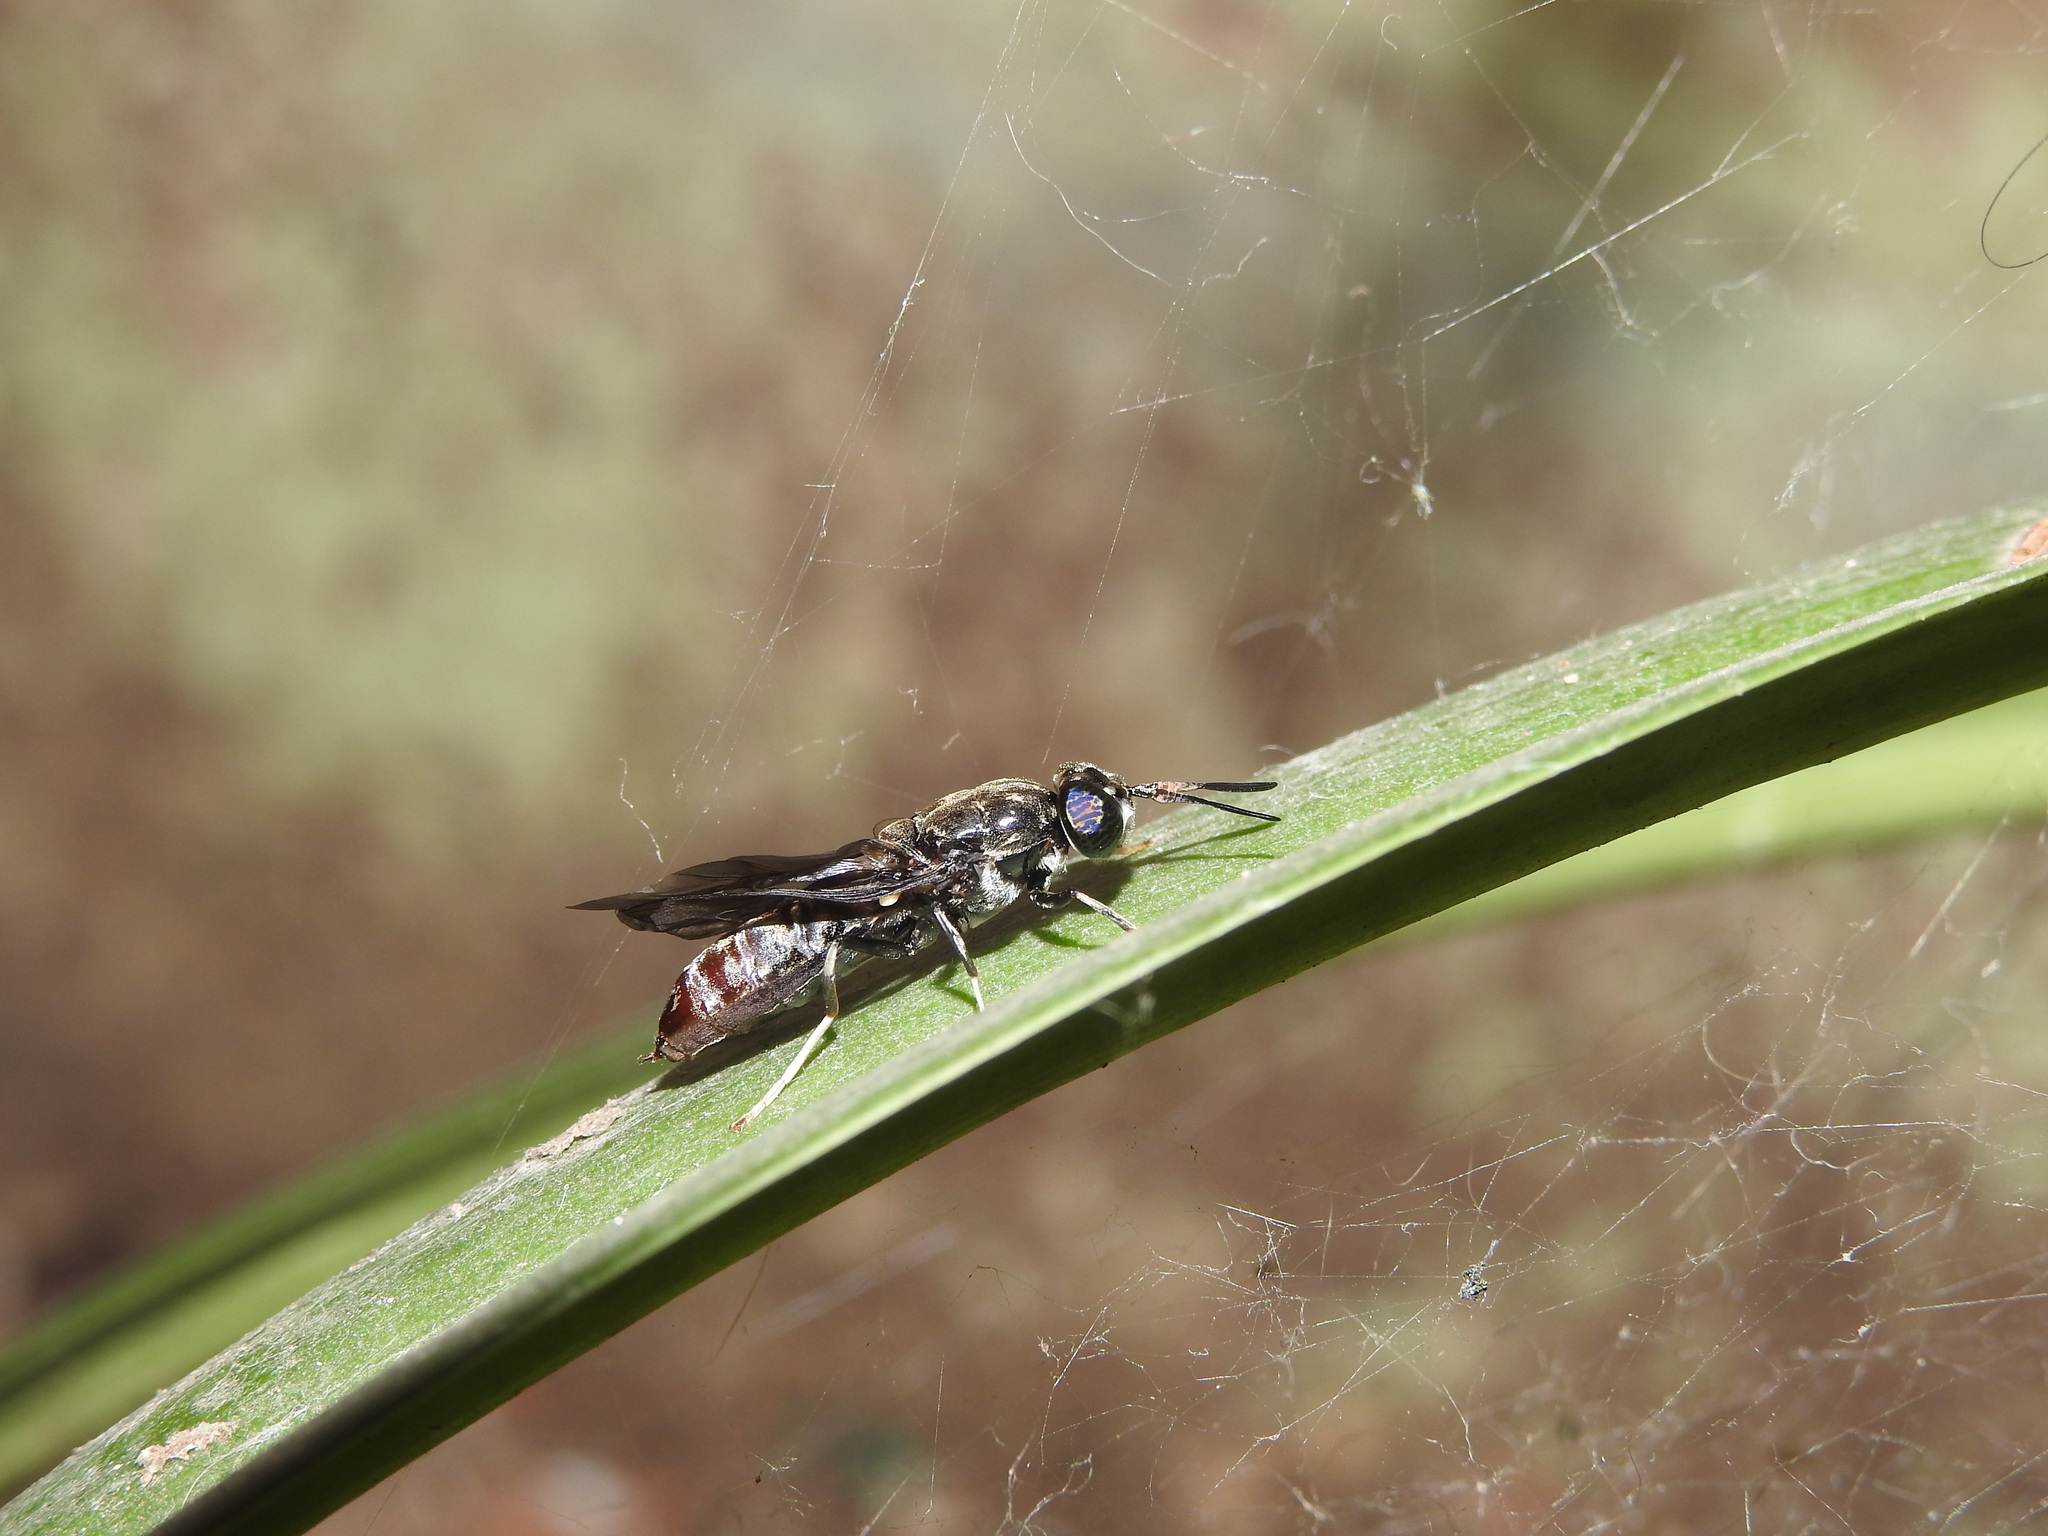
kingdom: Animalia
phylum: Arthropoda
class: Insecta
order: Diptera
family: Stratiomyidae
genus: Hermetia
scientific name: Hermetia illucens
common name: Black soldier fly
